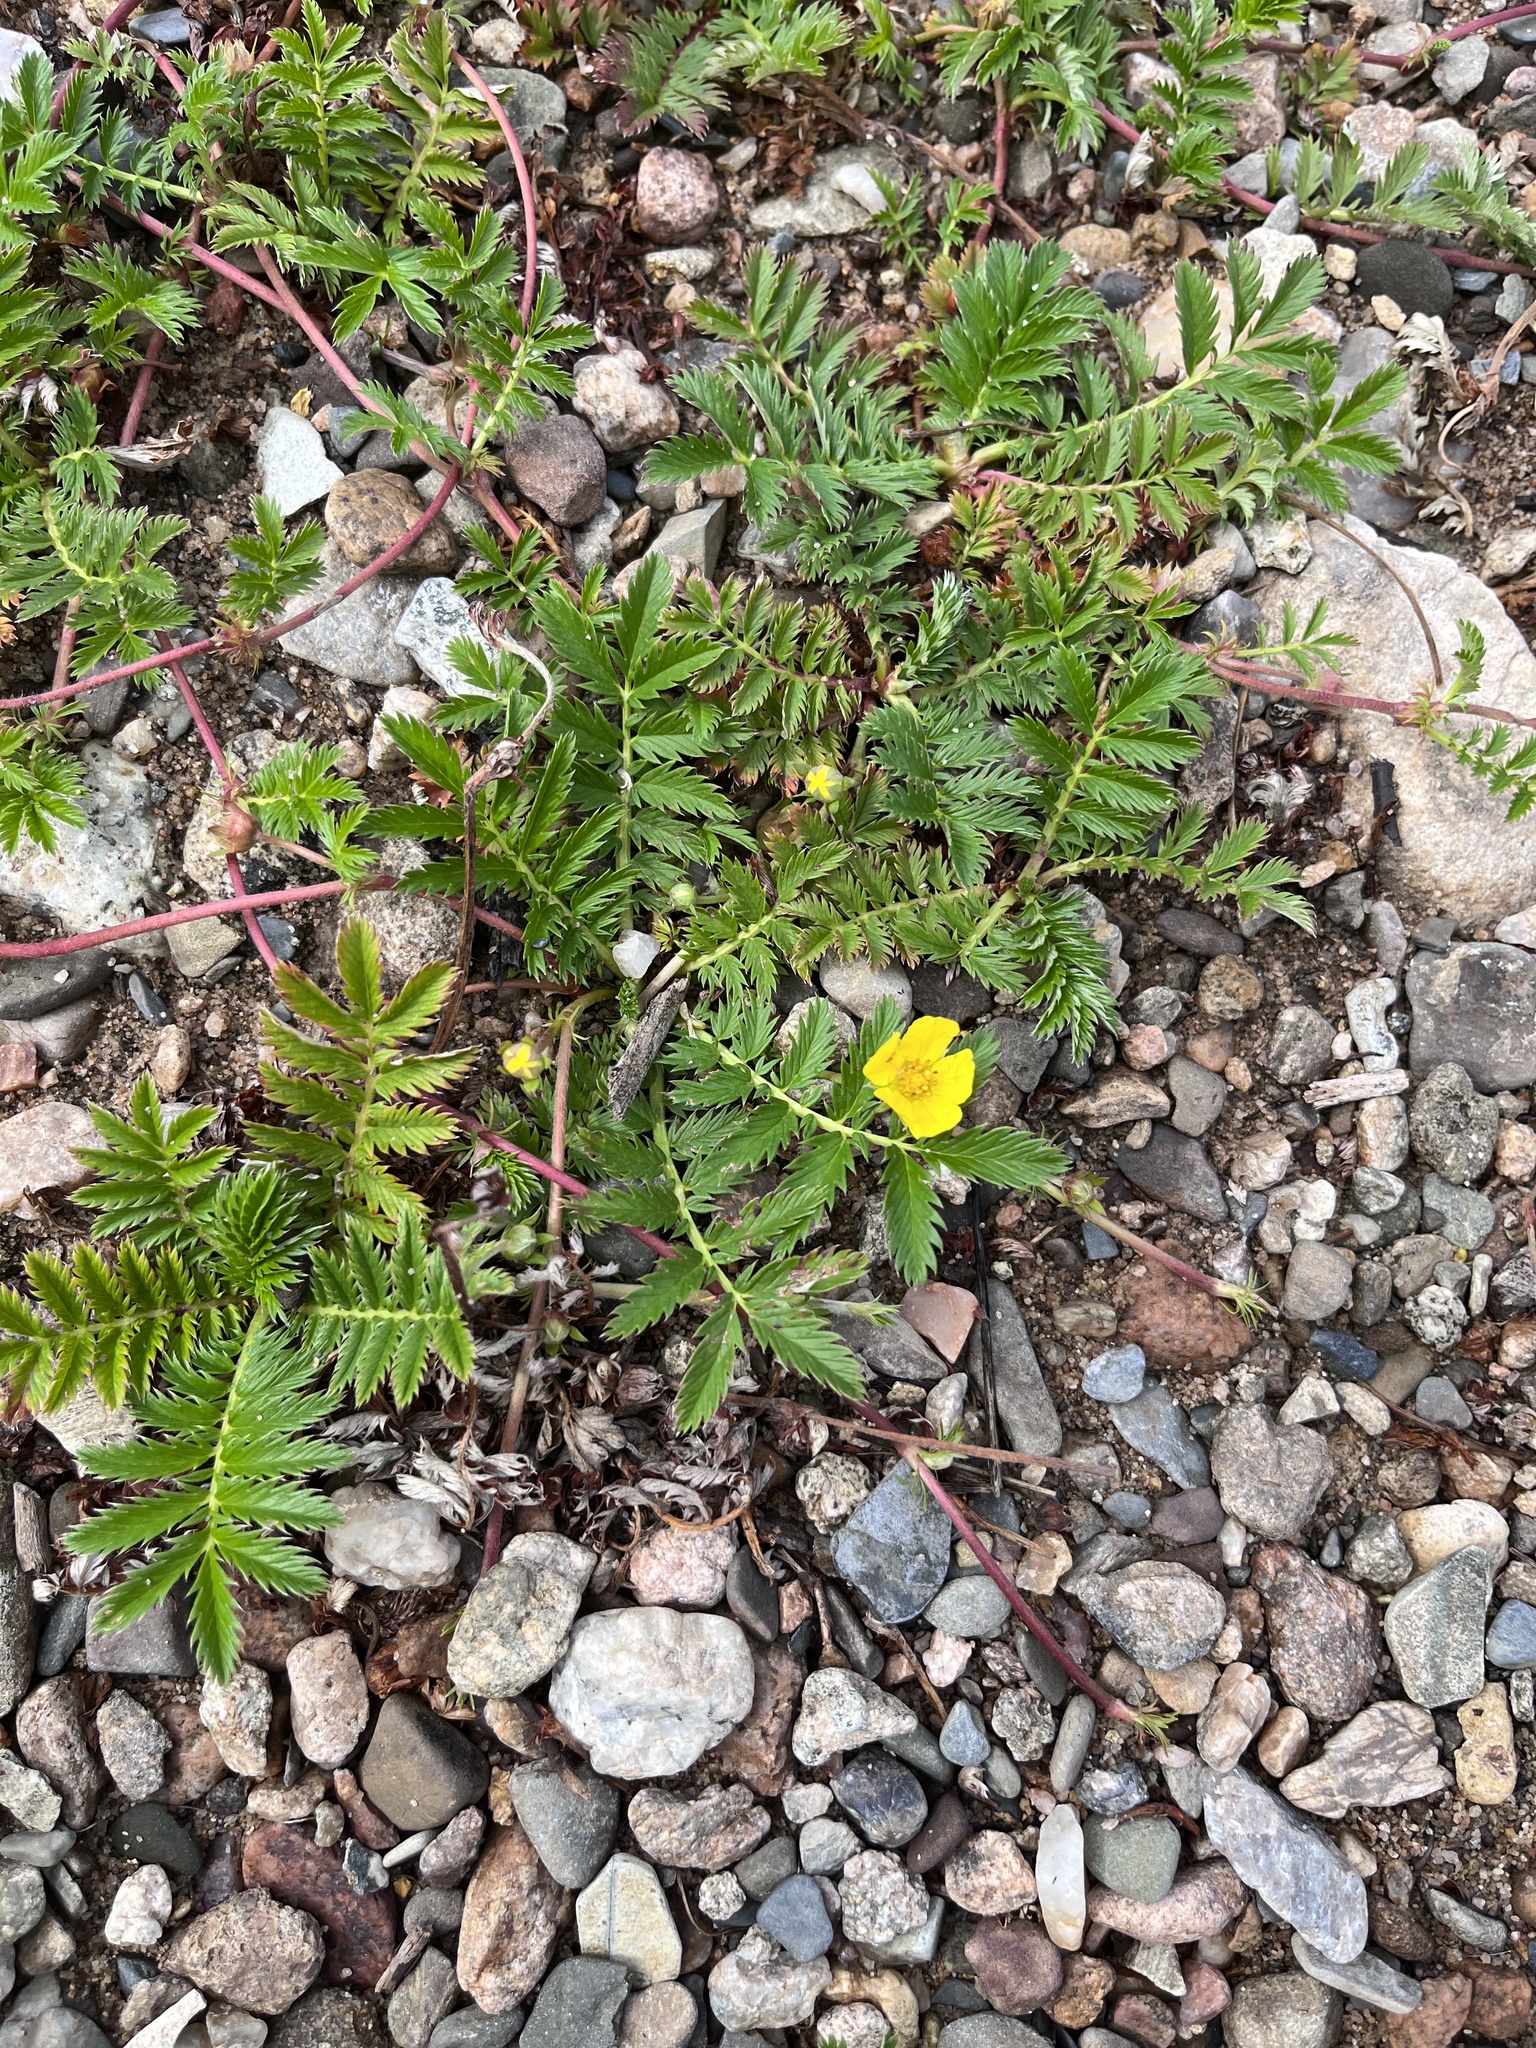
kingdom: Plantae
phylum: Tracheophyta
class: Magnoliopsida
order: Zygophyllales
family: Zygophyllaceae
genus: Tribulus
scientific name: Tribulus terrestris
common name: Puncturevine
